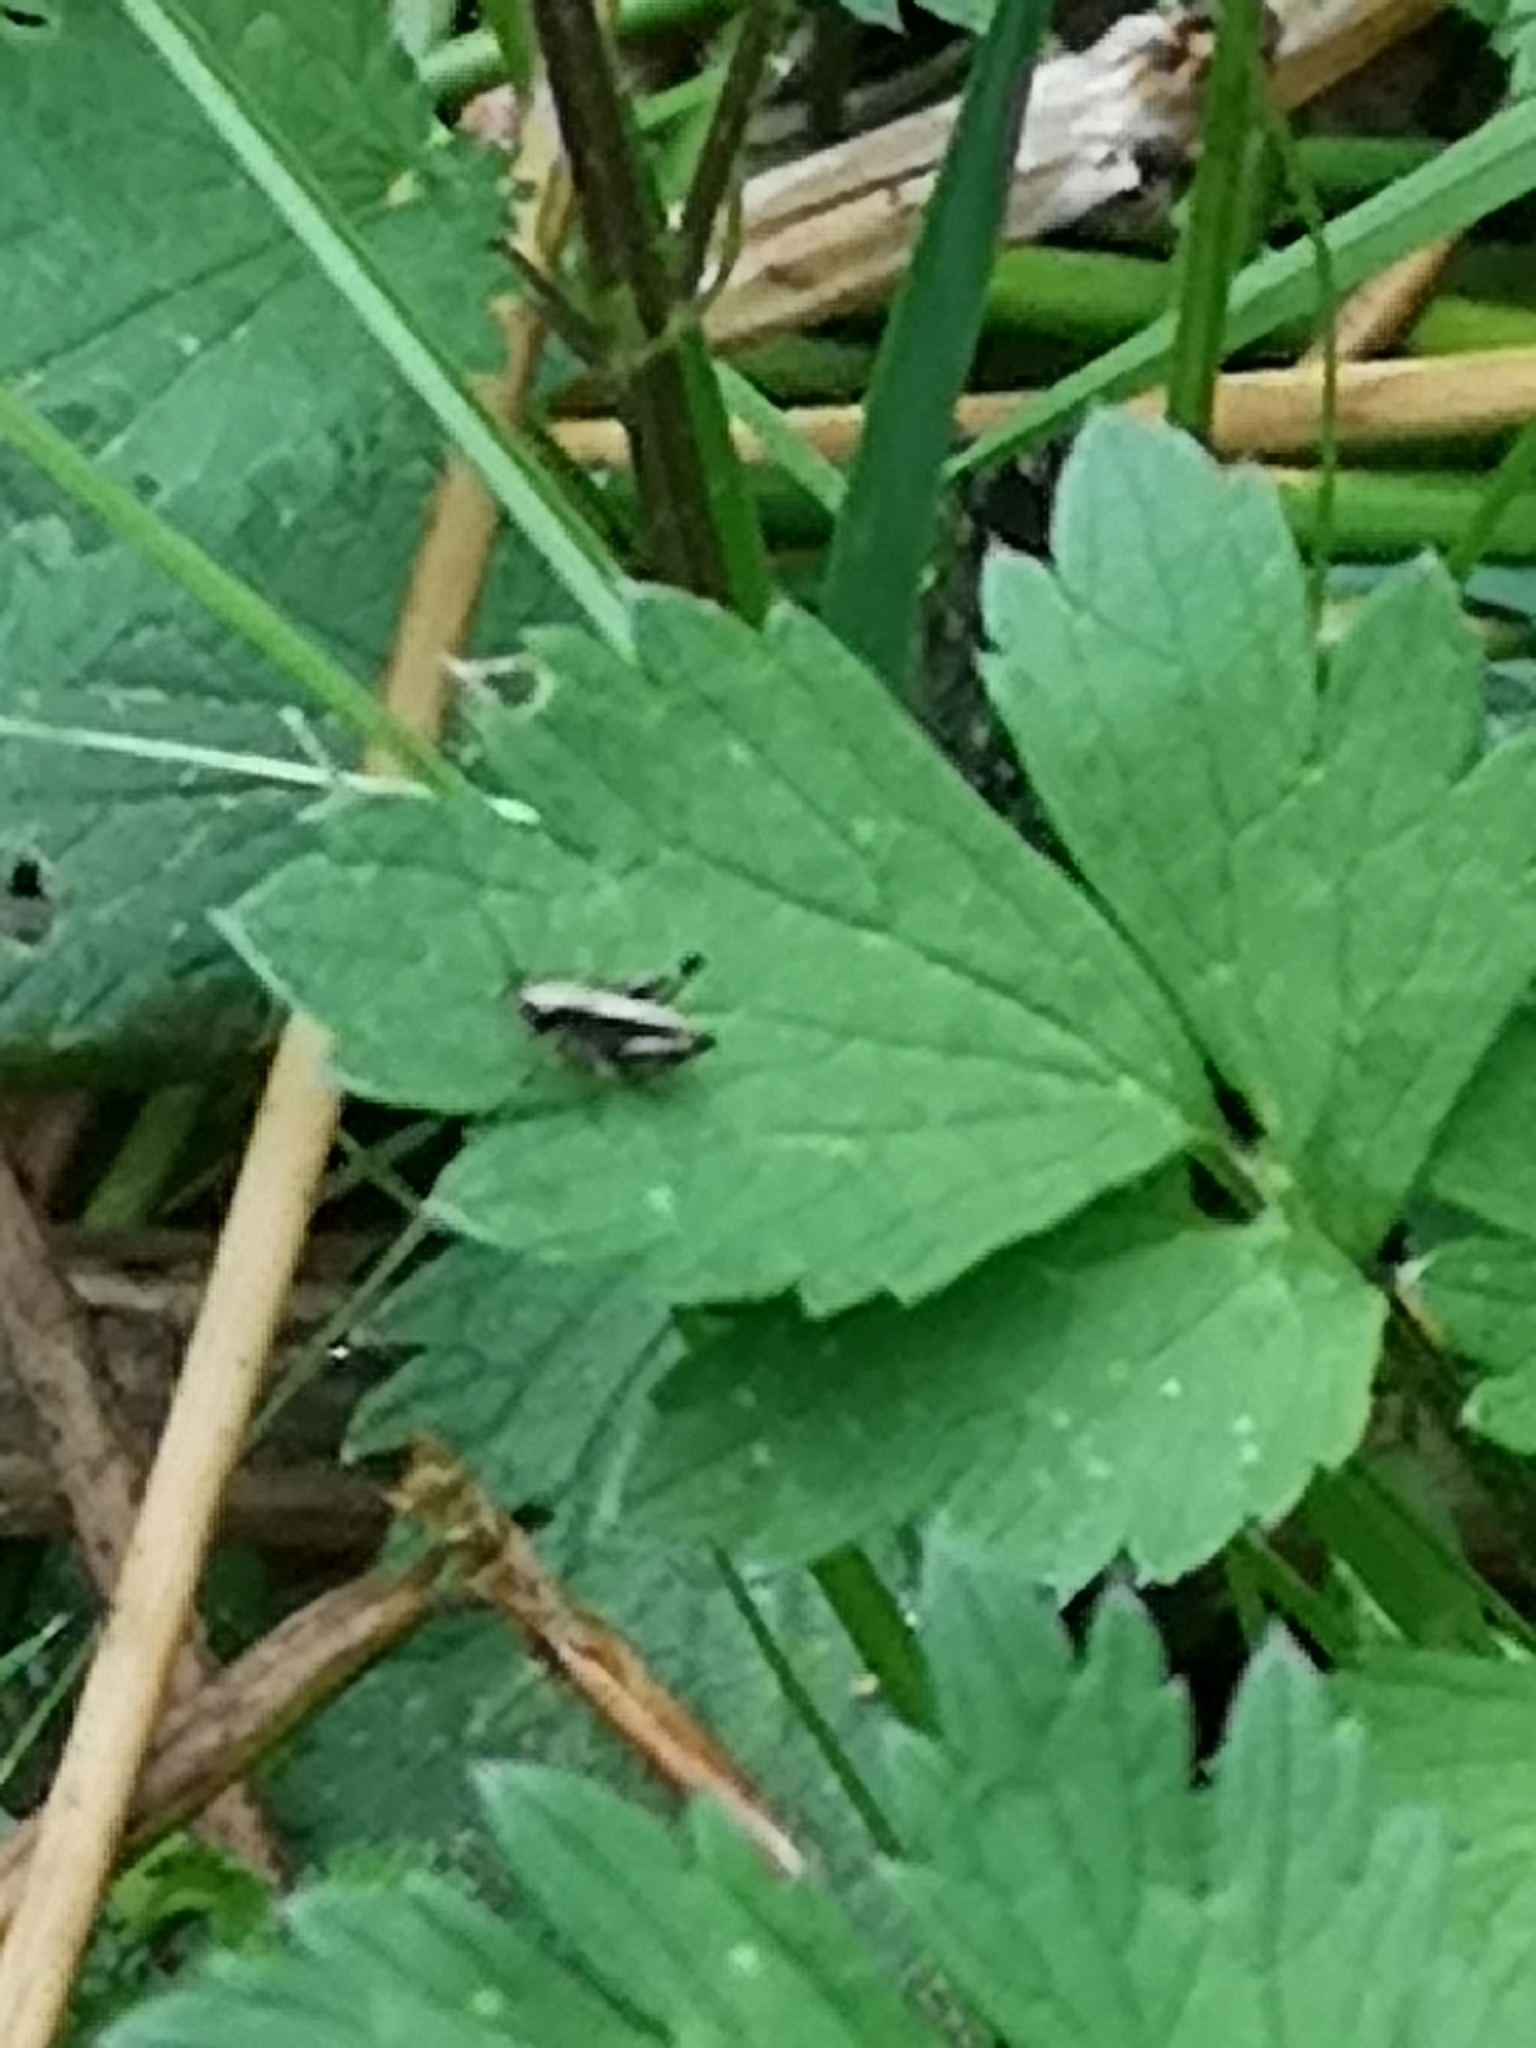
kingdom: Animalia
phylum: Arthropoda
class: Insecta
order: Orthoptera
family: Tettigoniidae
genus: Pholidoptera
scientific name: Pholidoptera griseoaptera
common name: Dark bush-cricket
